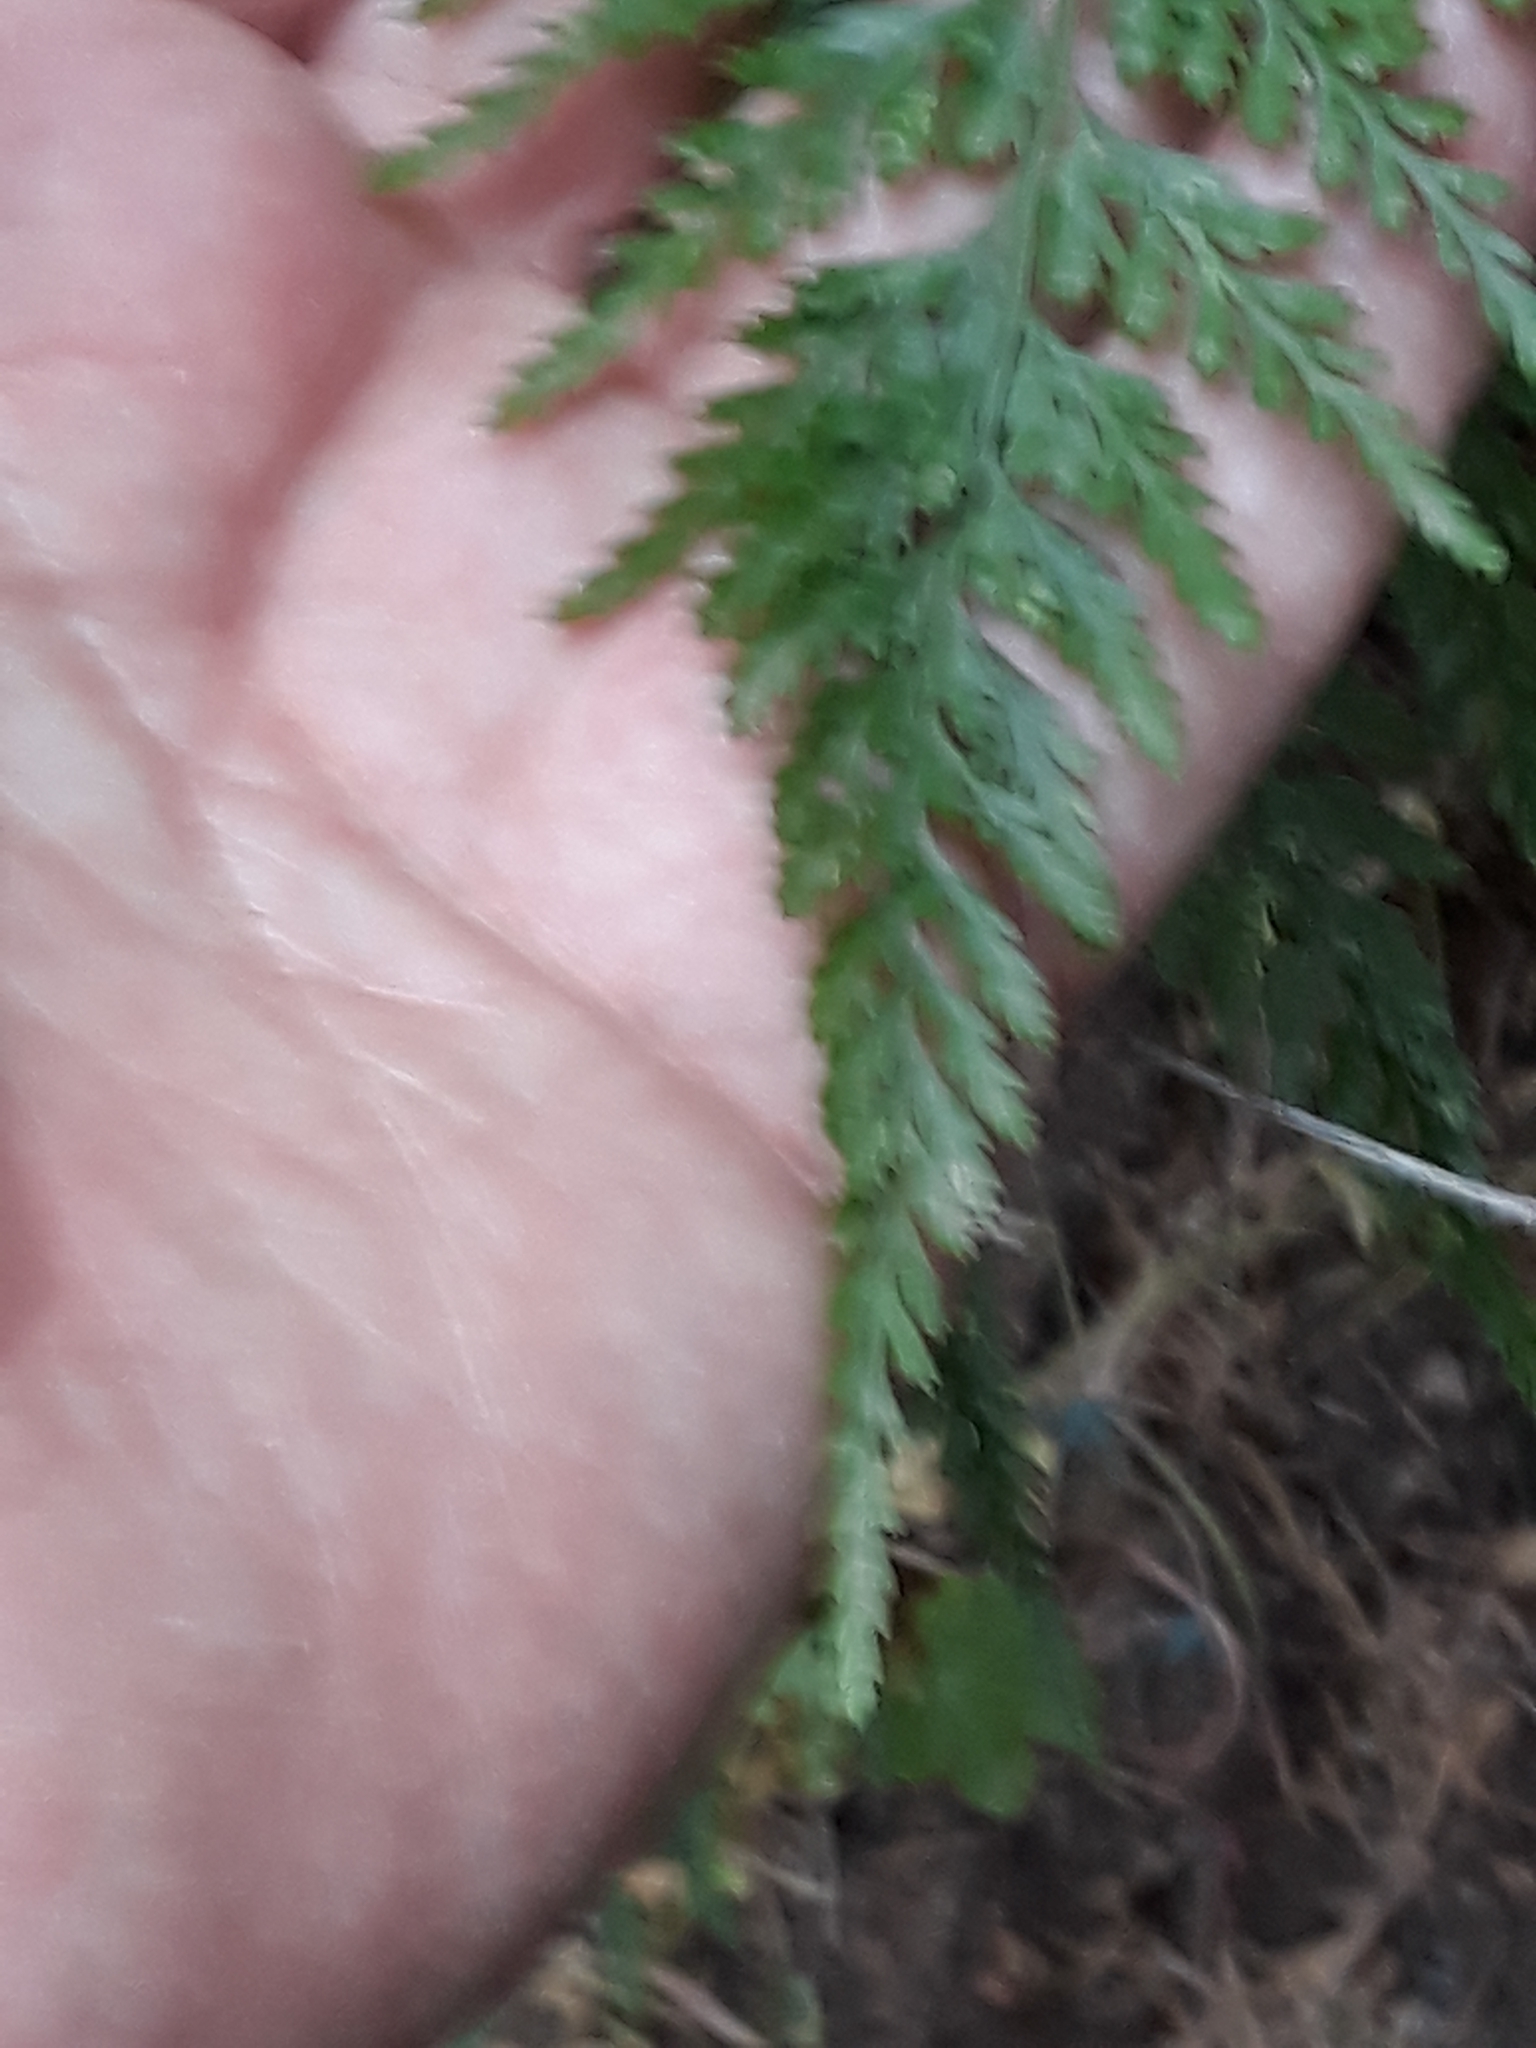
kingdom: Plantae
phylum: Tracheophyta
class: Polypodiopsida
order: Polypodiales
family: Aspleniaceae
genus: Asplenium
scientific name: Asplenium onopteris
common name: Irish spleenwort
